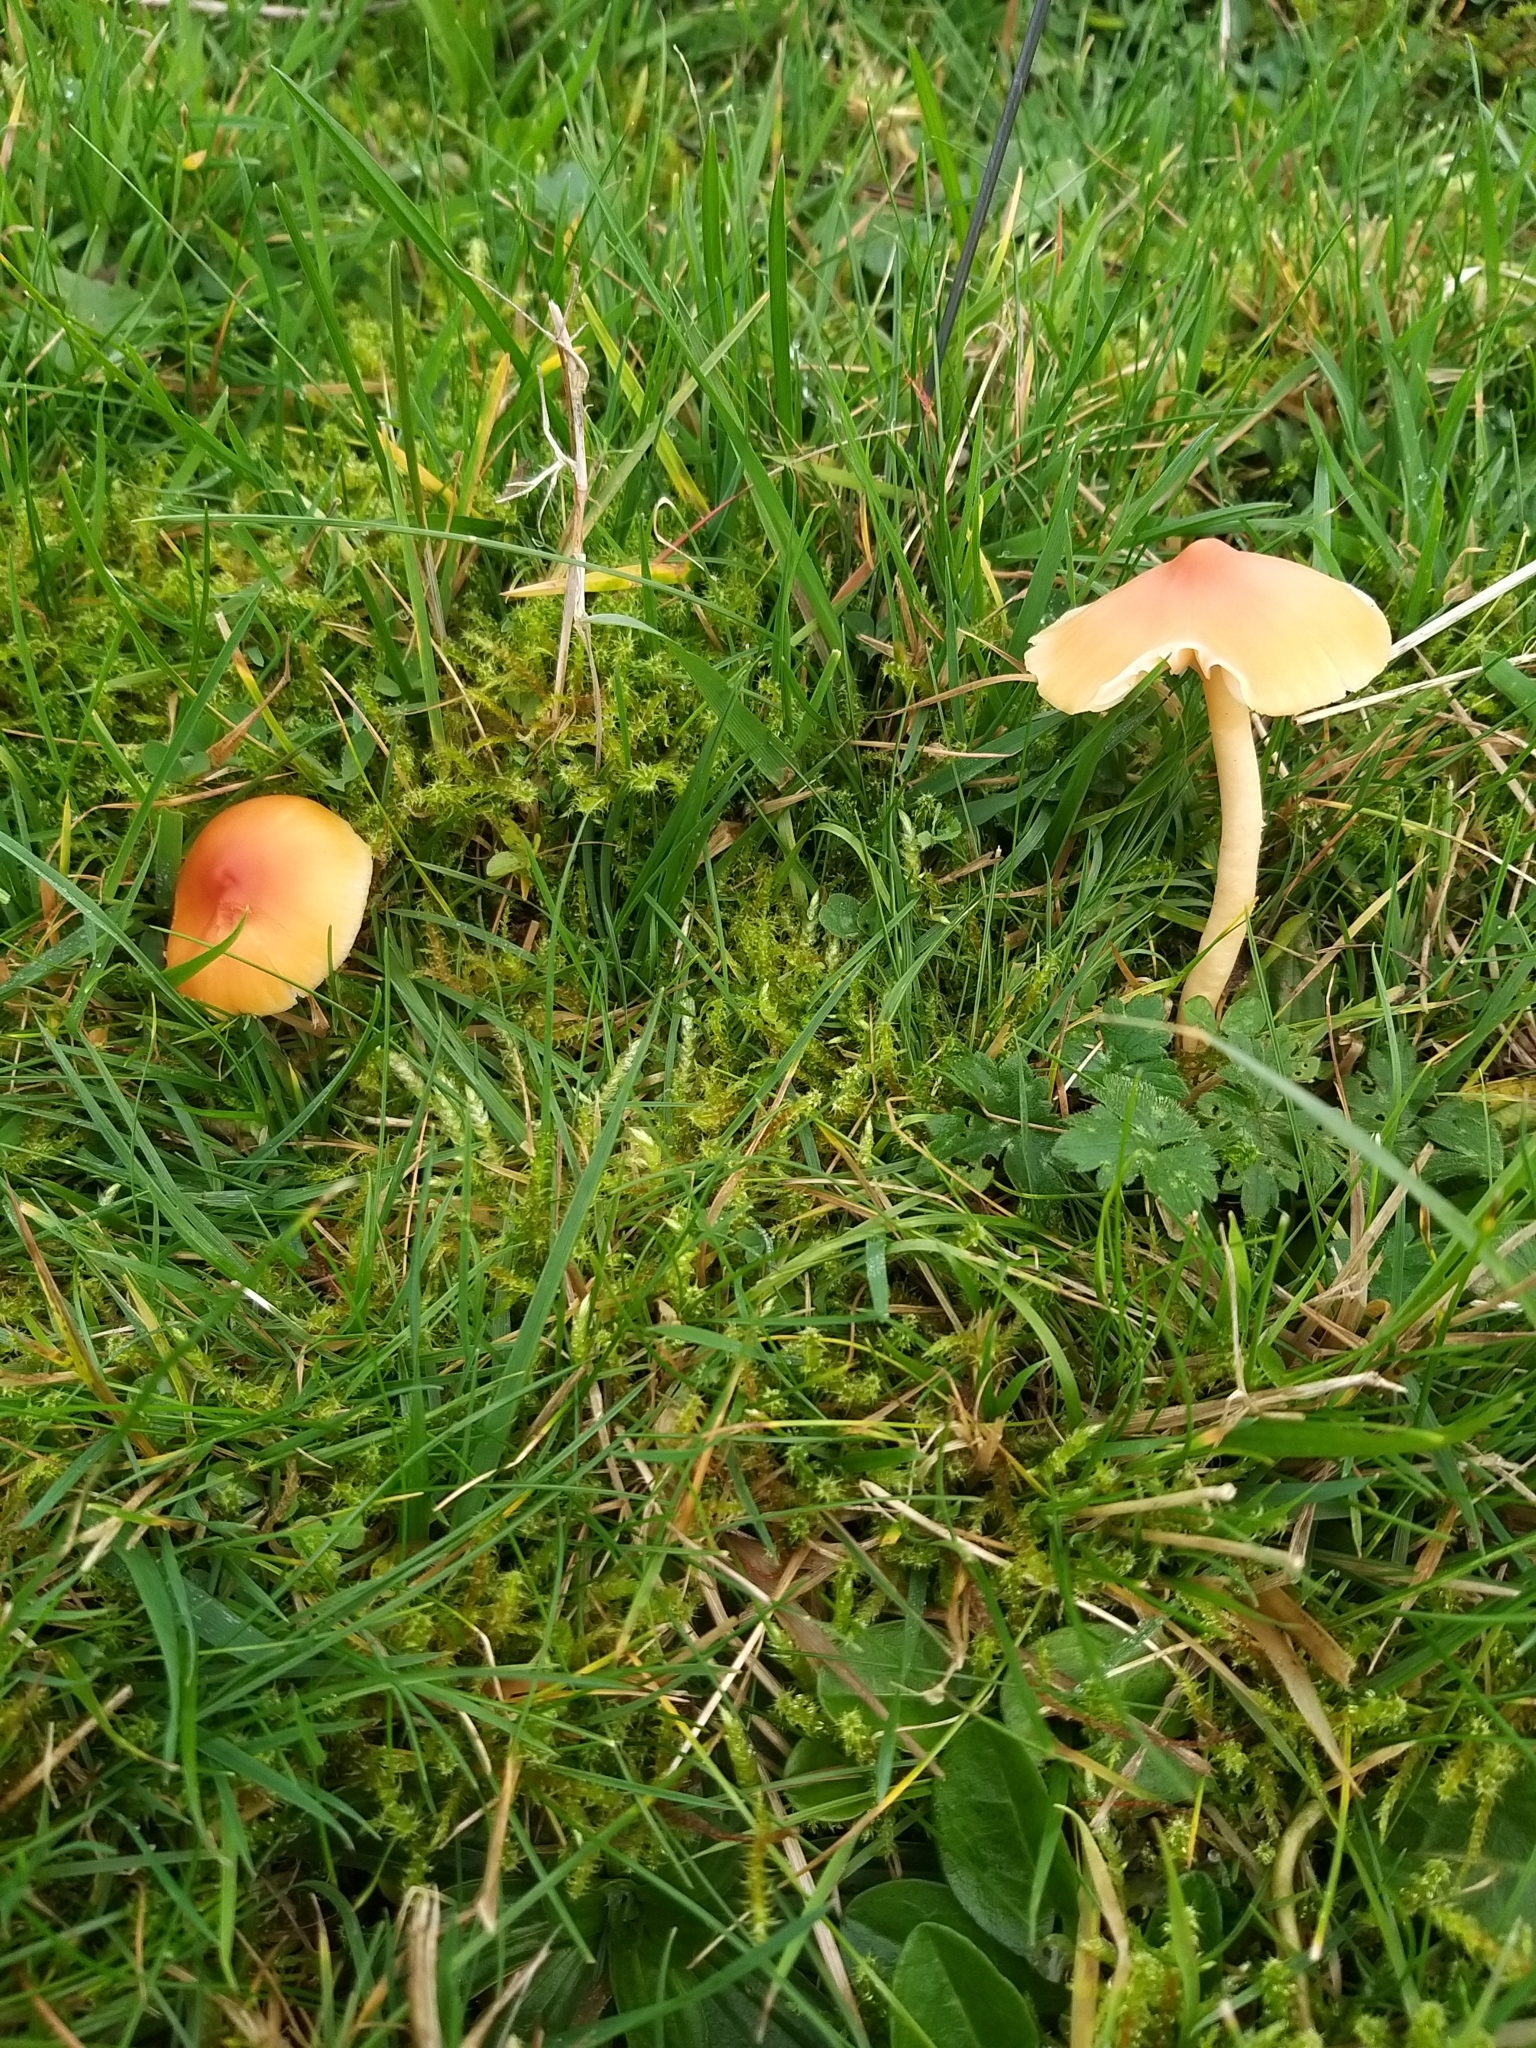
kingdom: Fungi
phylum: Basidiomycota
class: Agaricomycetes
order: Agaricales
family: Hygrophoraceae
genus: Cuphophyllus
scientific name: Cuphophyllus pratensis
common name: Meadow waxcap
